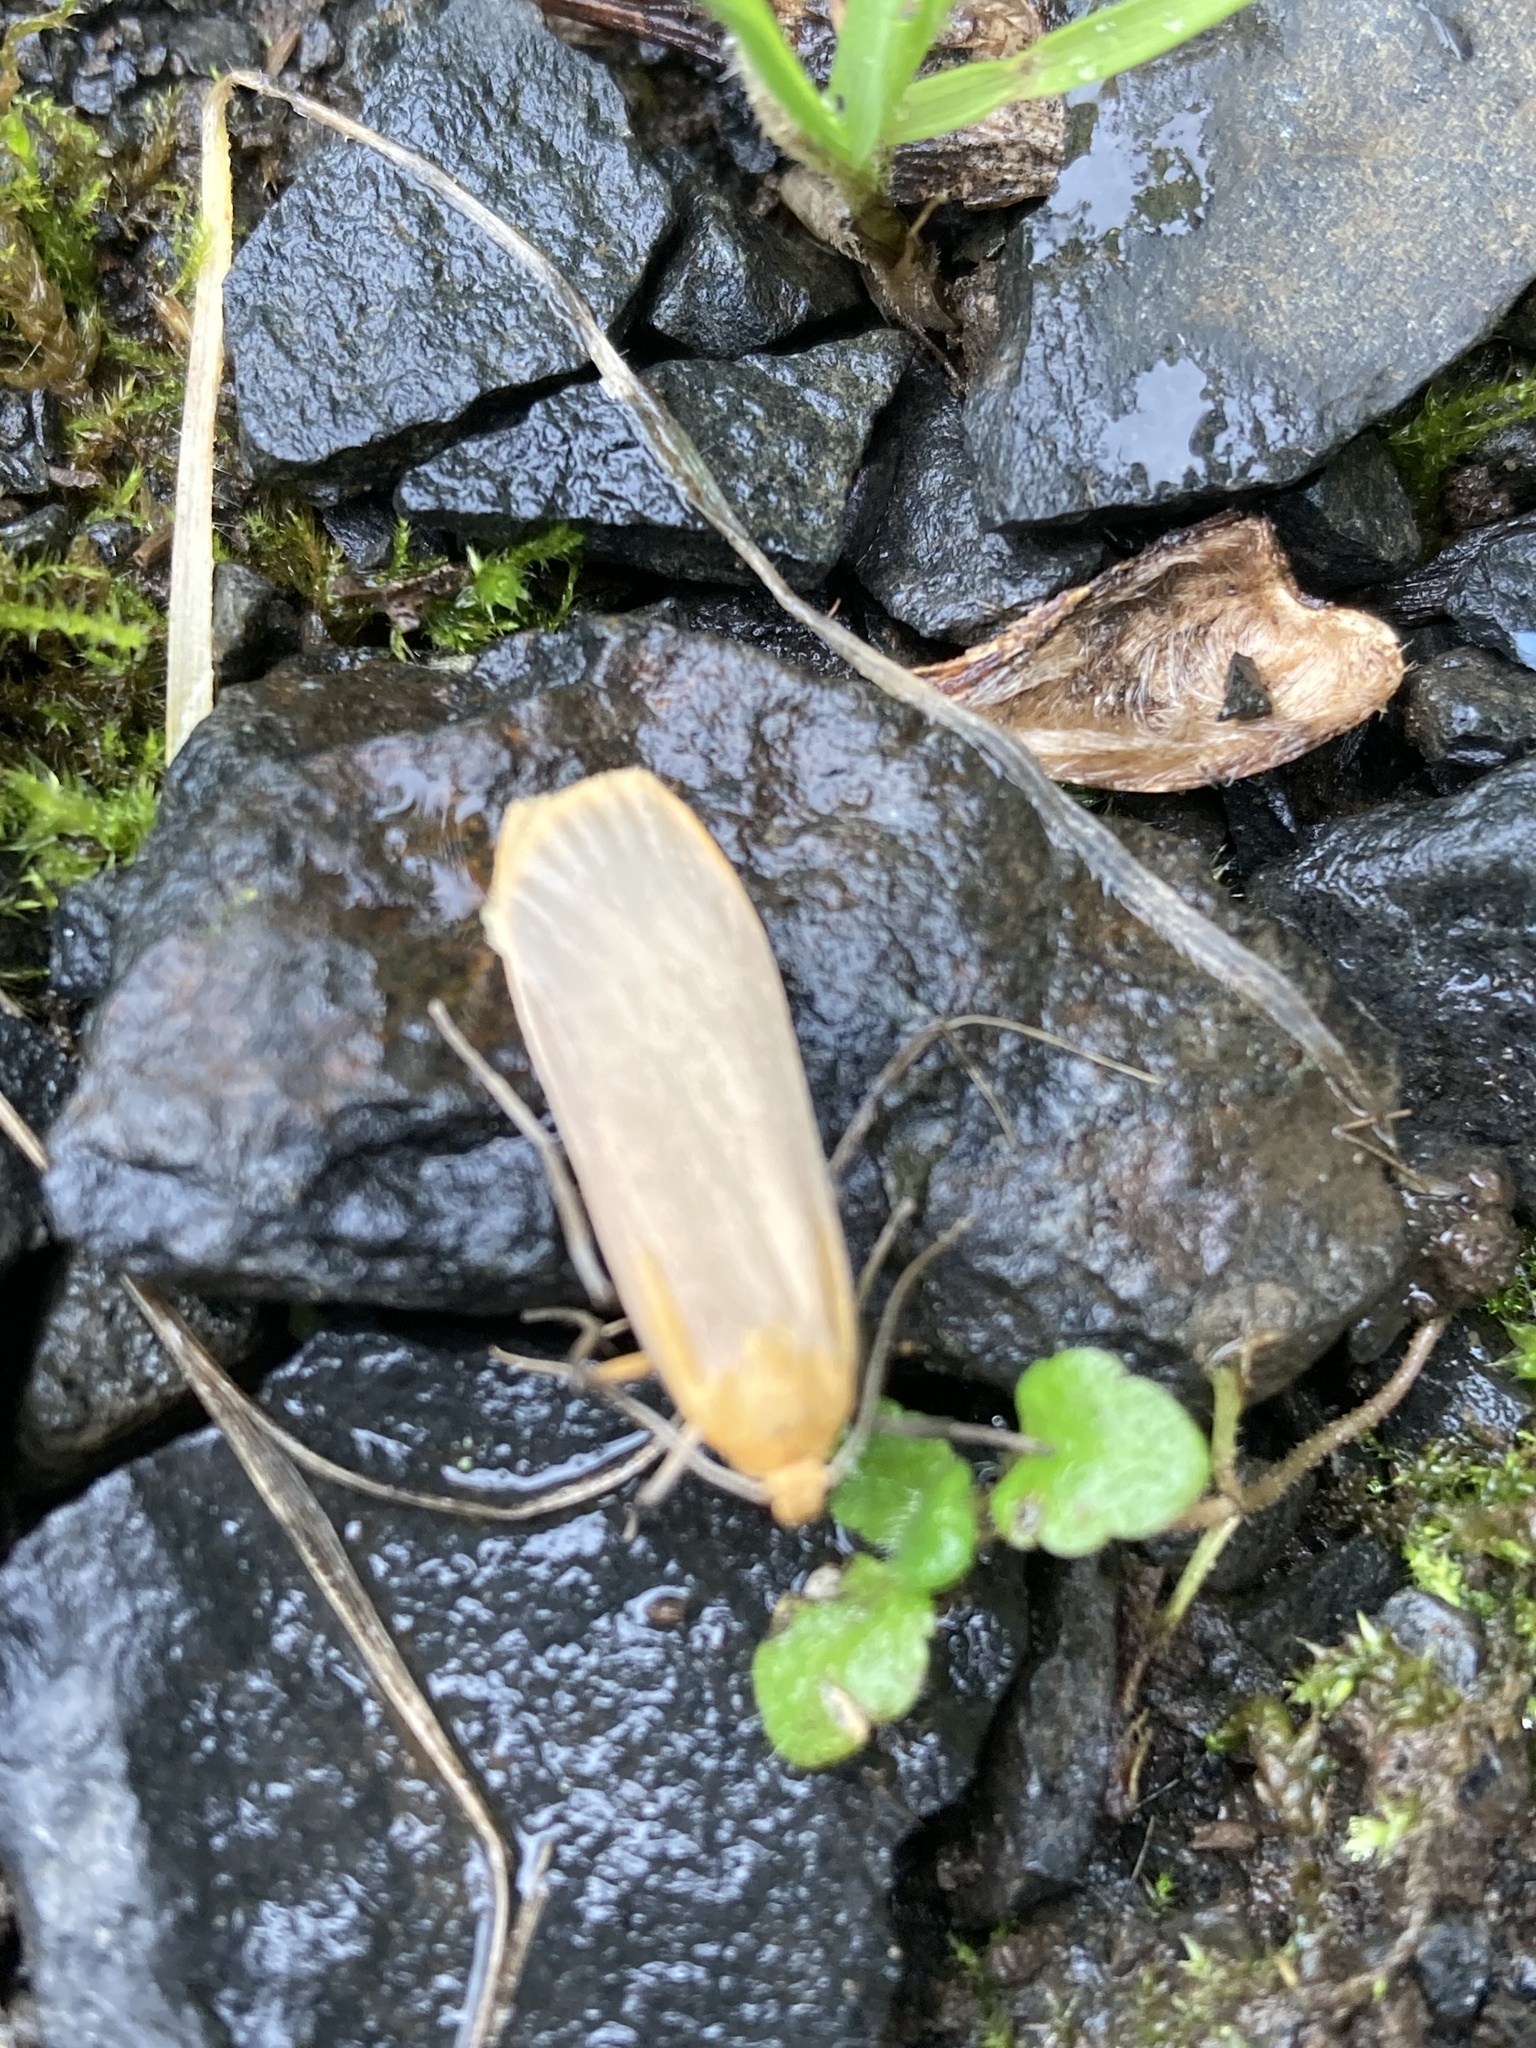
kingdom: Animalia
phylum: Arthropoda
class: Insecta
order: Lepidoptera
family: Erebidae
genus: Katha
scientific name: Katha depressa
